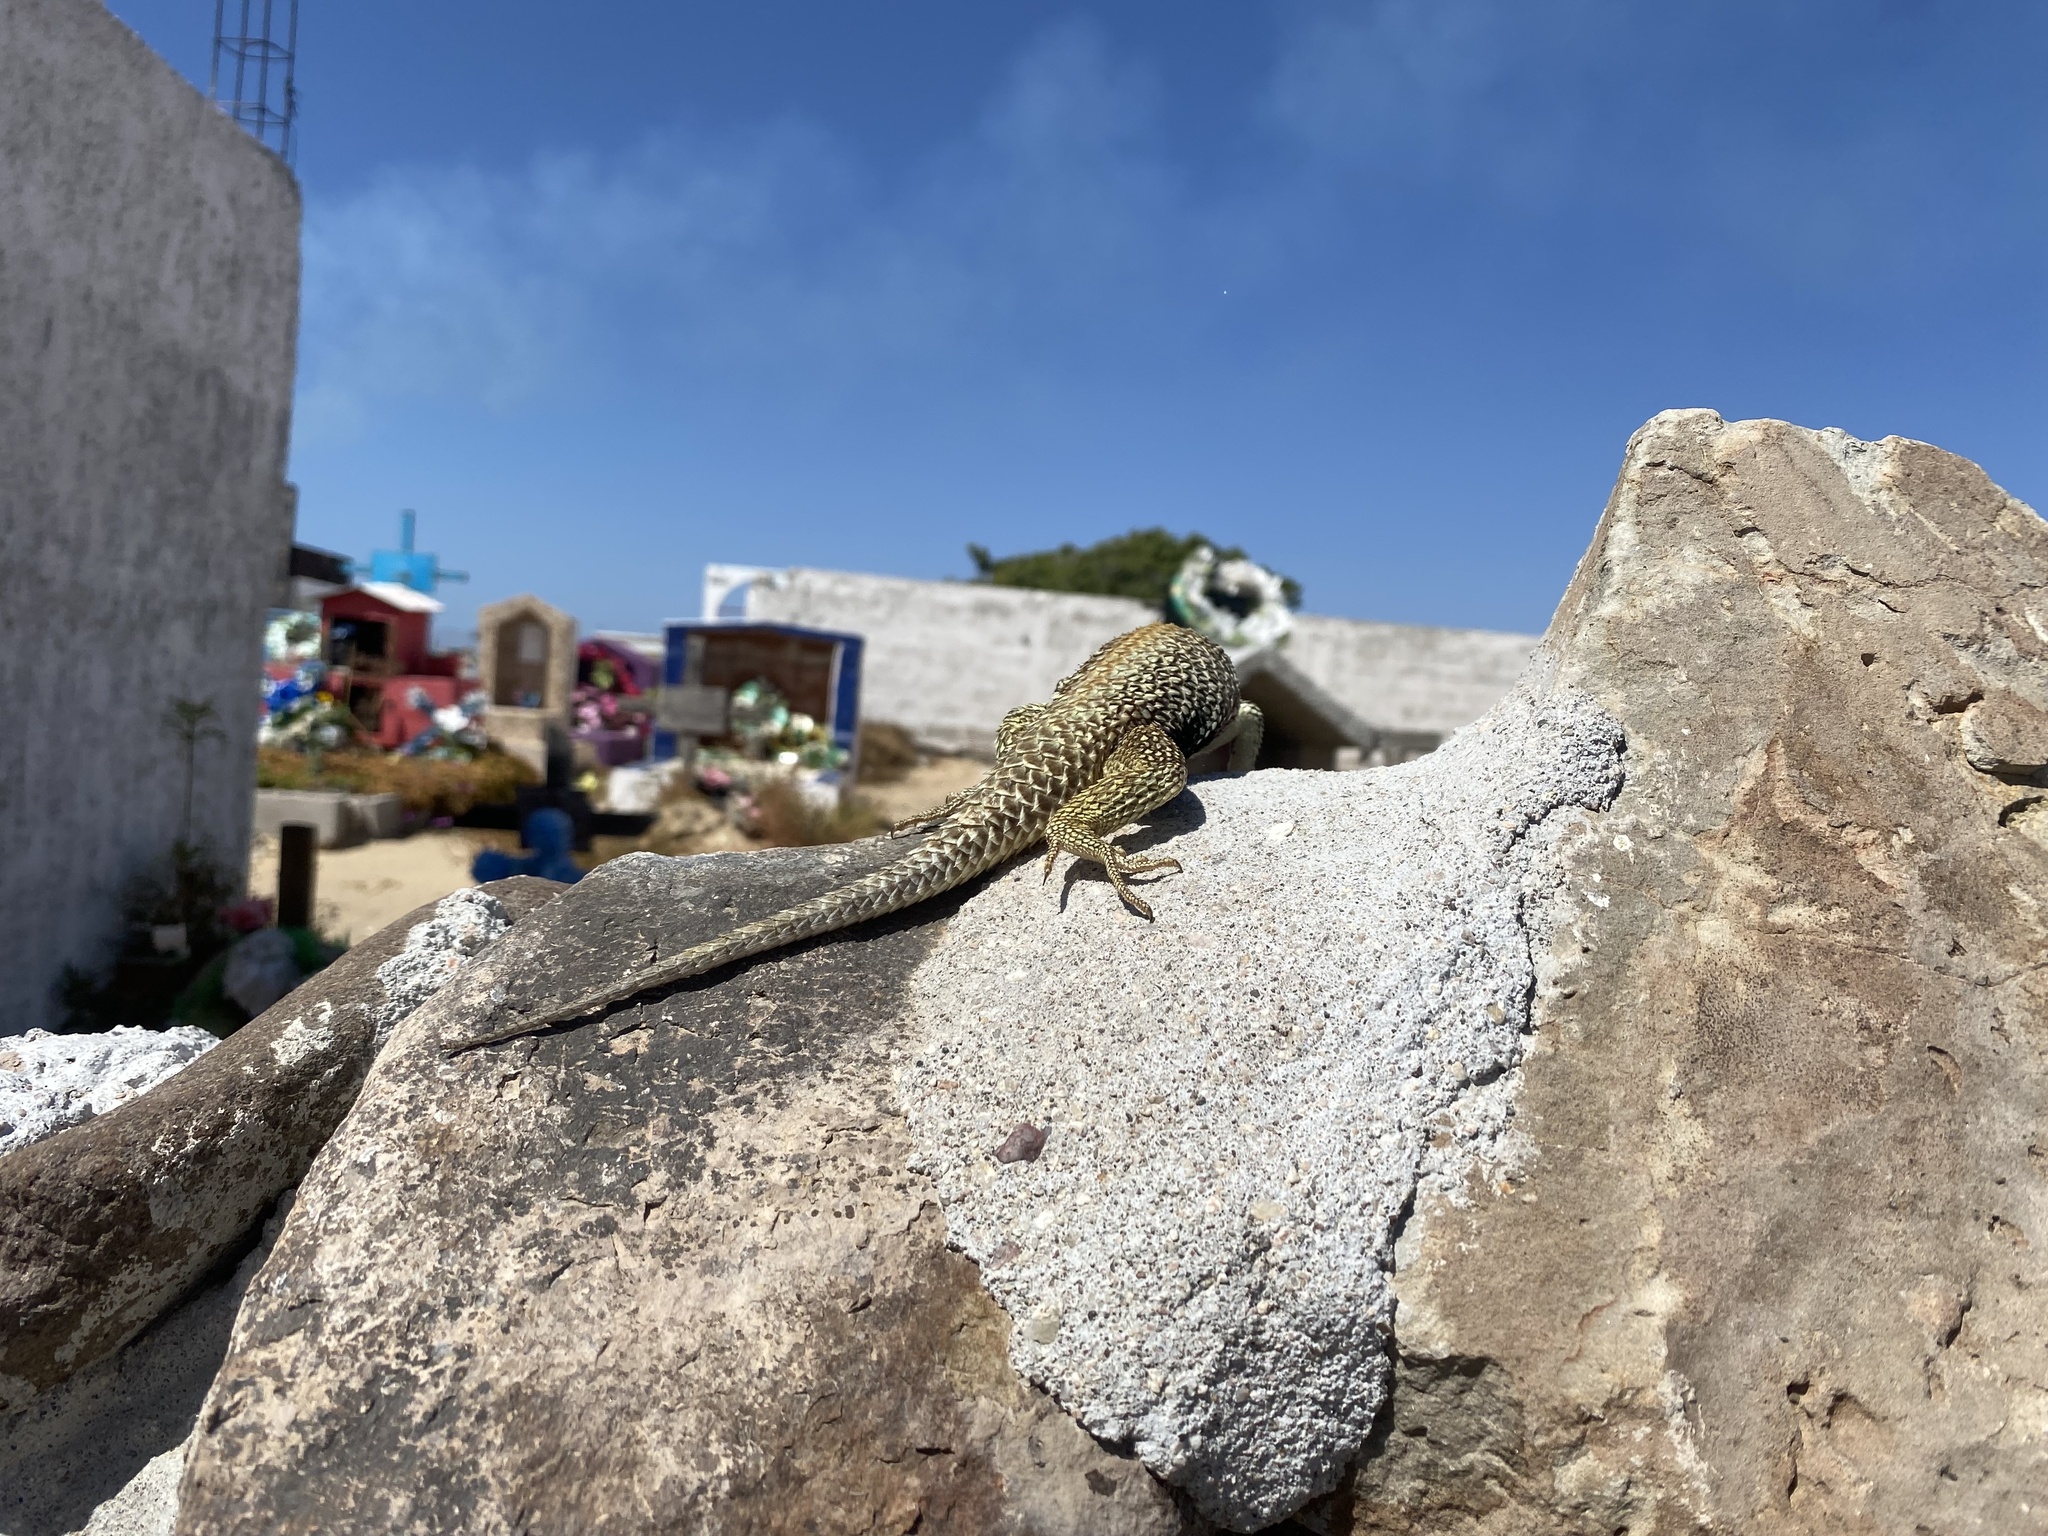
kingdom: Animalia
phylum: Chordata
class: Squamata
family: Phrynosomatidae
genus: Sceloporus
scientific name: Sceloporus zosteromus
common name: Baja spiny lizard
